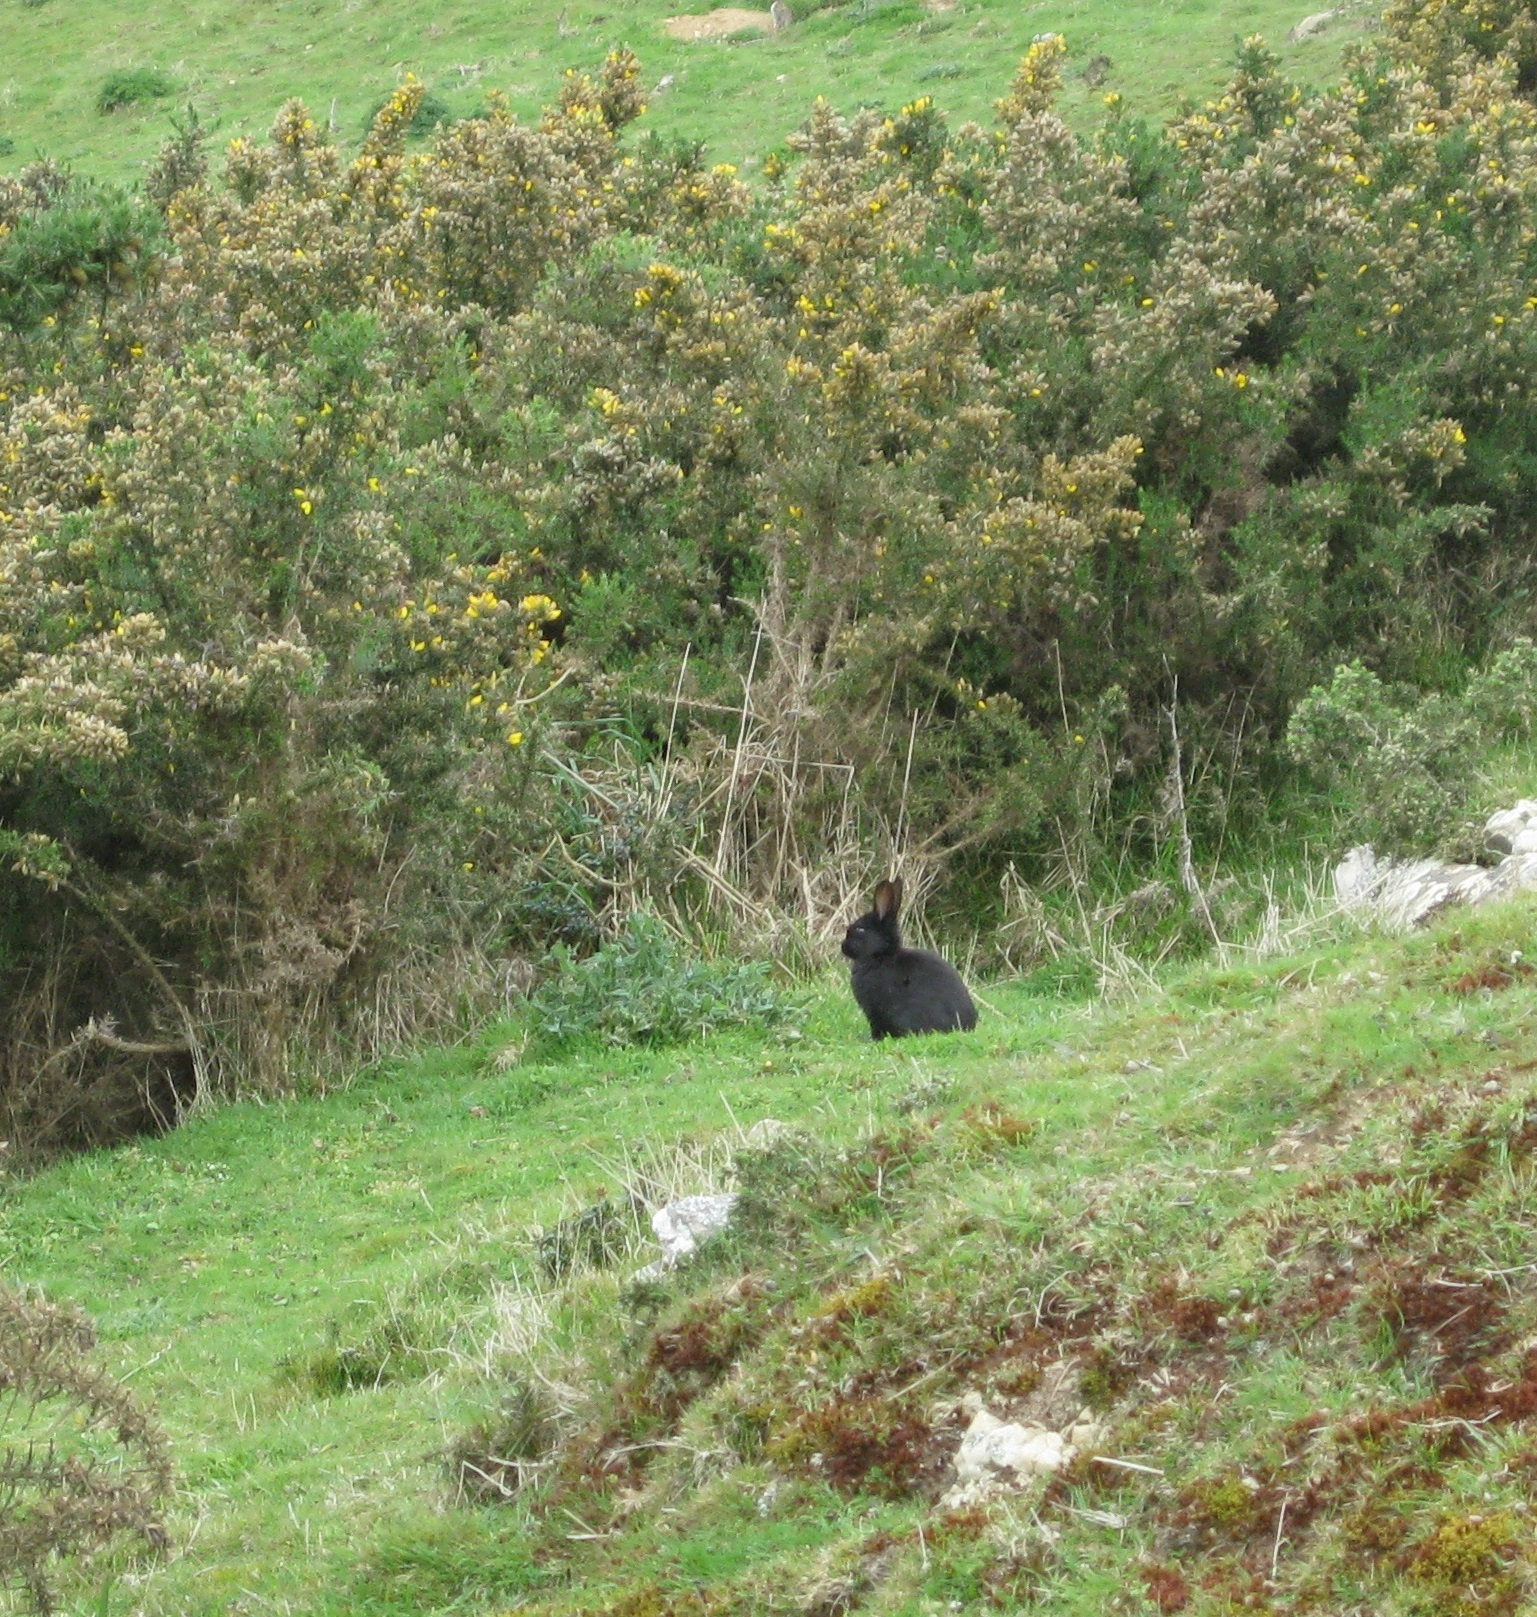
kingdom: Animalia
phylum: Chordata
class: Mammalia
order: Lagomorpha
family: Leporidae
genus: Oryctolagus
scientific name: Oryctolagus cuniculus
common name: European rabbit
